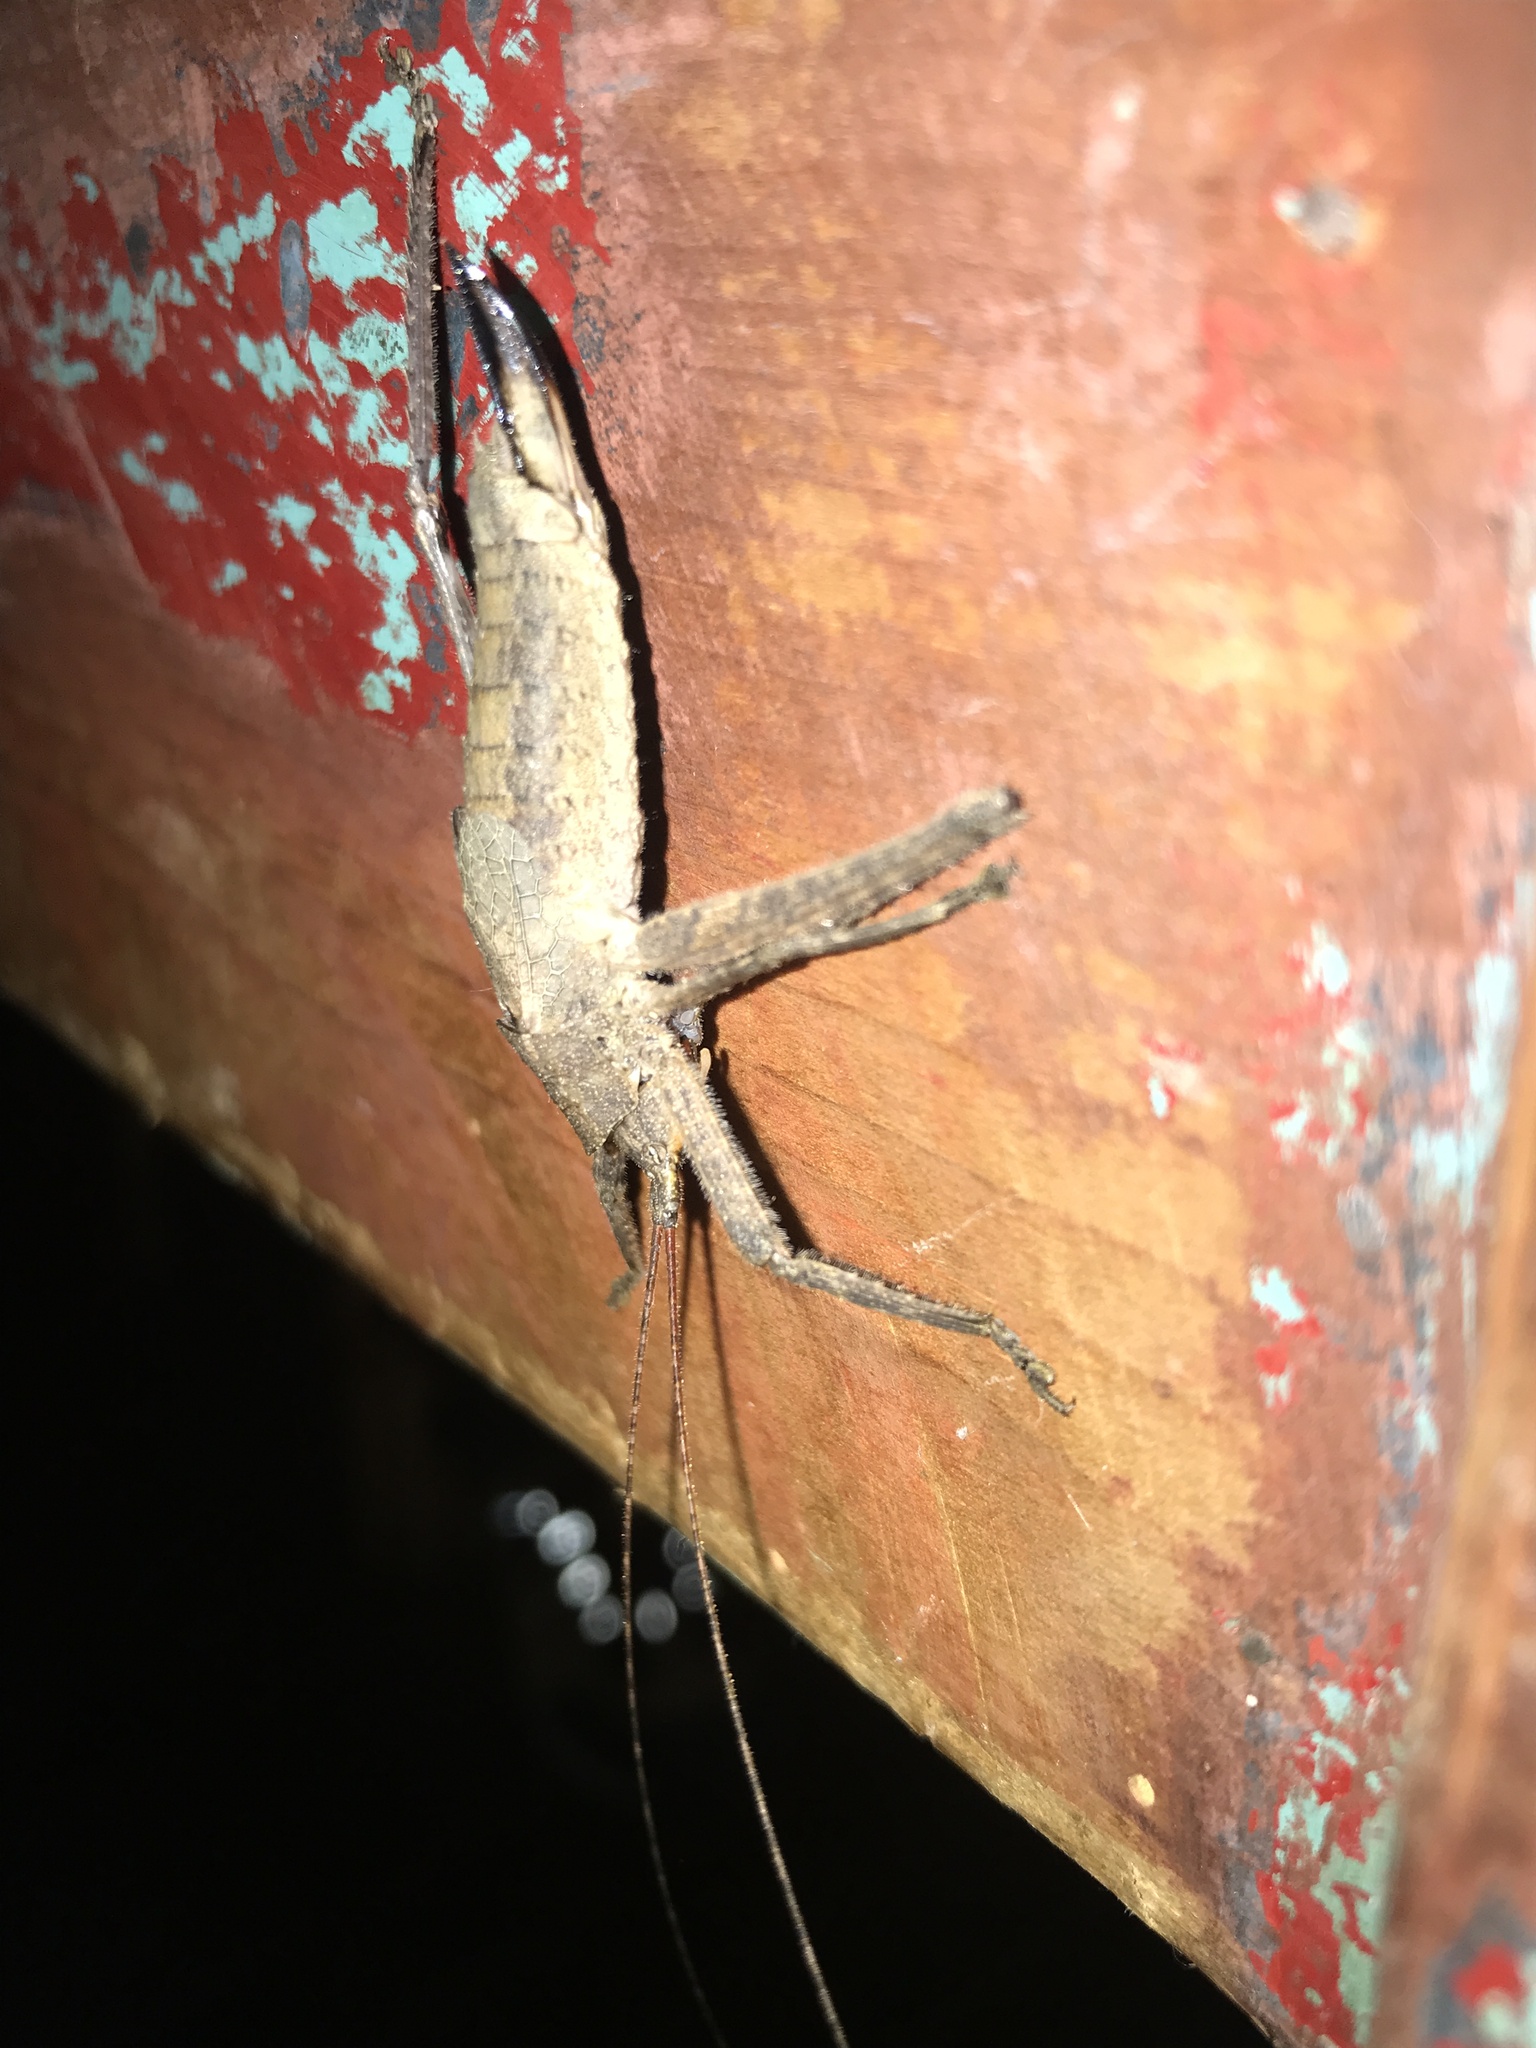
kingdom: Animalia
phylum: Arthropoda
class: Insecta
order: Orthoptera
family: Tettigoniidae
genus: Dasyscelus
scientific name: Dasyscelus normalis
